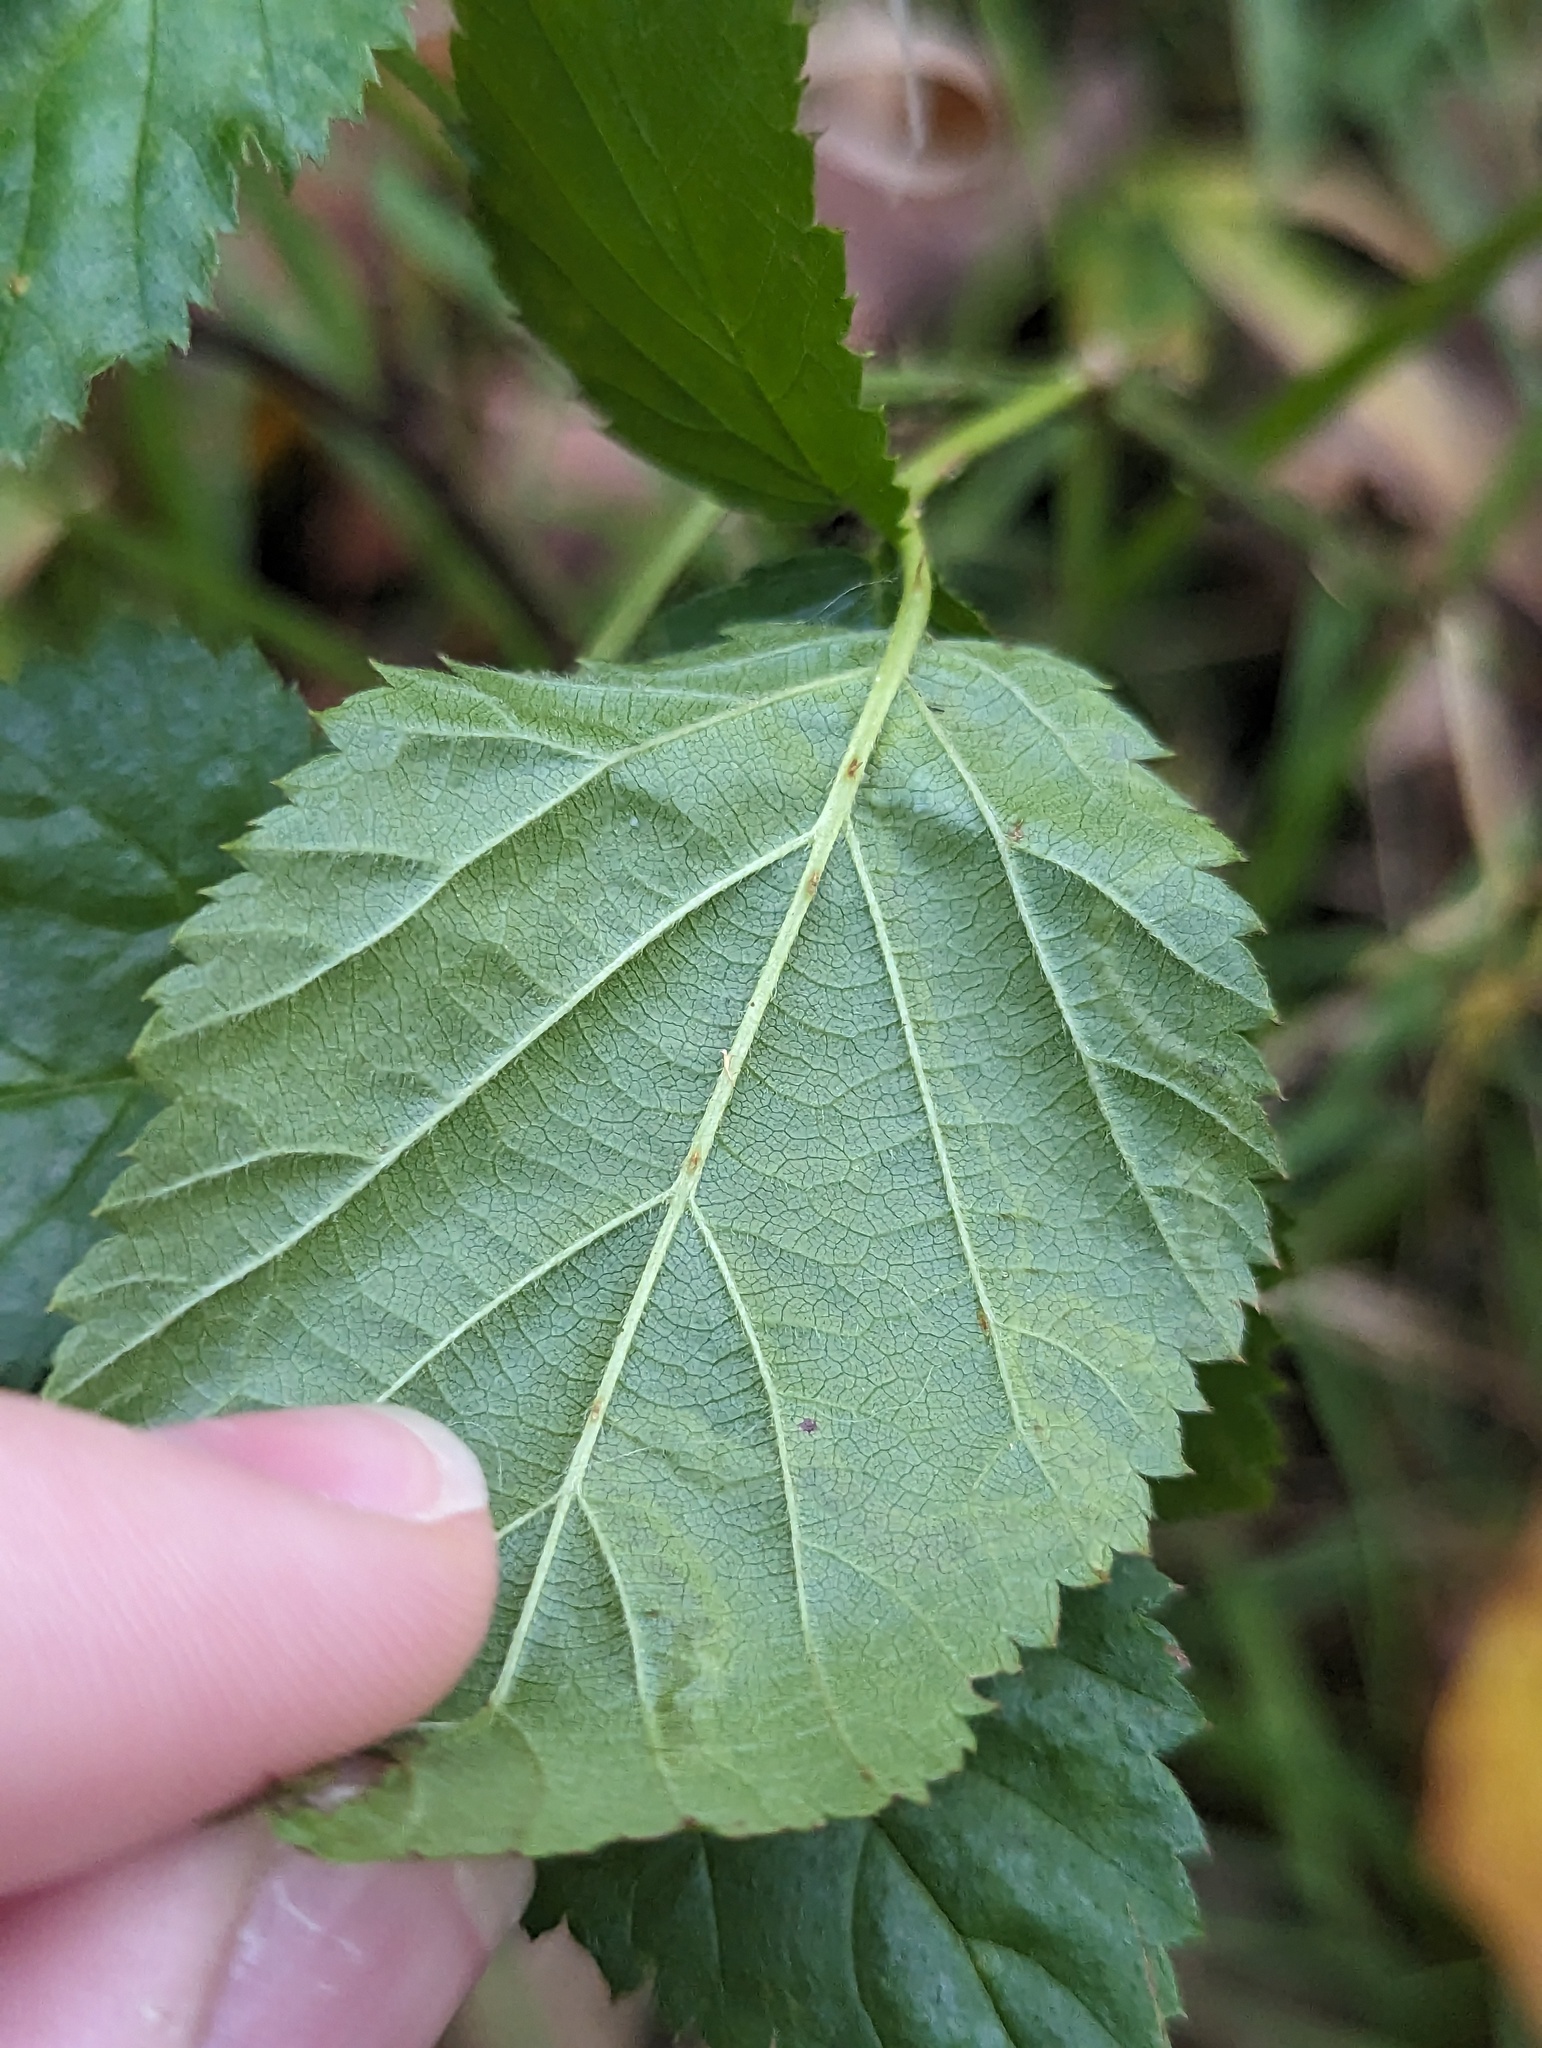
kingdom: Animalia
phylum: Arthropoda
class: Insecta
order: Diptera
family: Agromyzidae
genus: Agromyza
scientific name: Agromyza vockerothi
